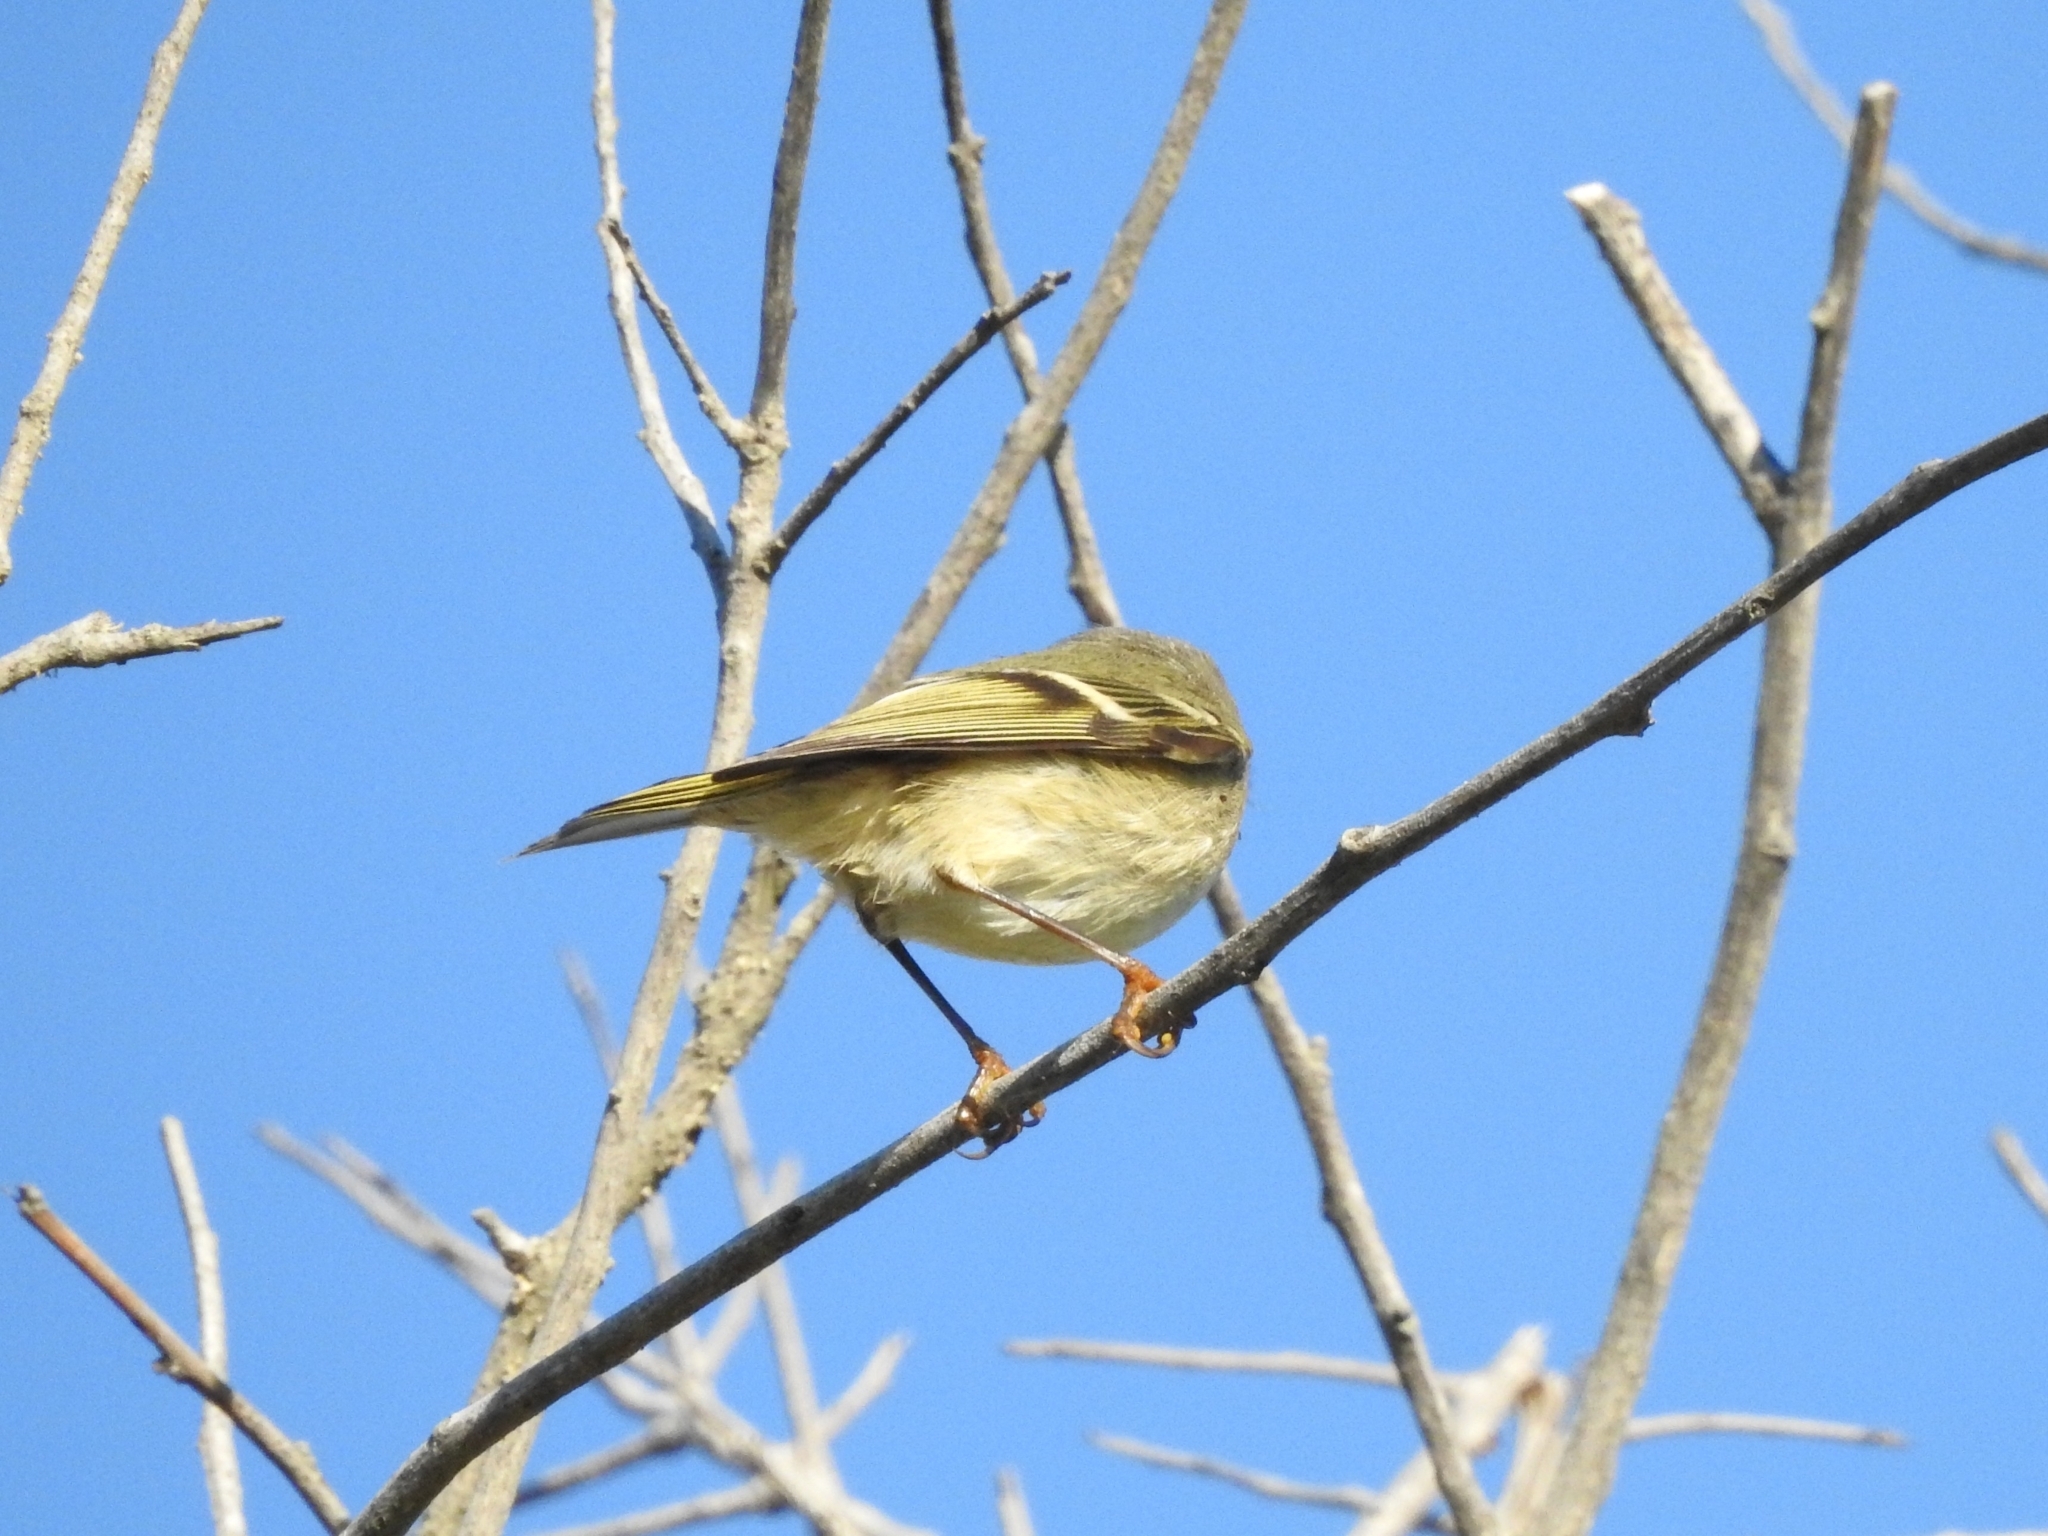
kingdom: Animalia
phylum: Chordata
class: Aves
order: Passeriformes
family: Regulidae
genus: Regulus
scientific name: Regulus calendula
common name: Ruby-crowned kinglet
